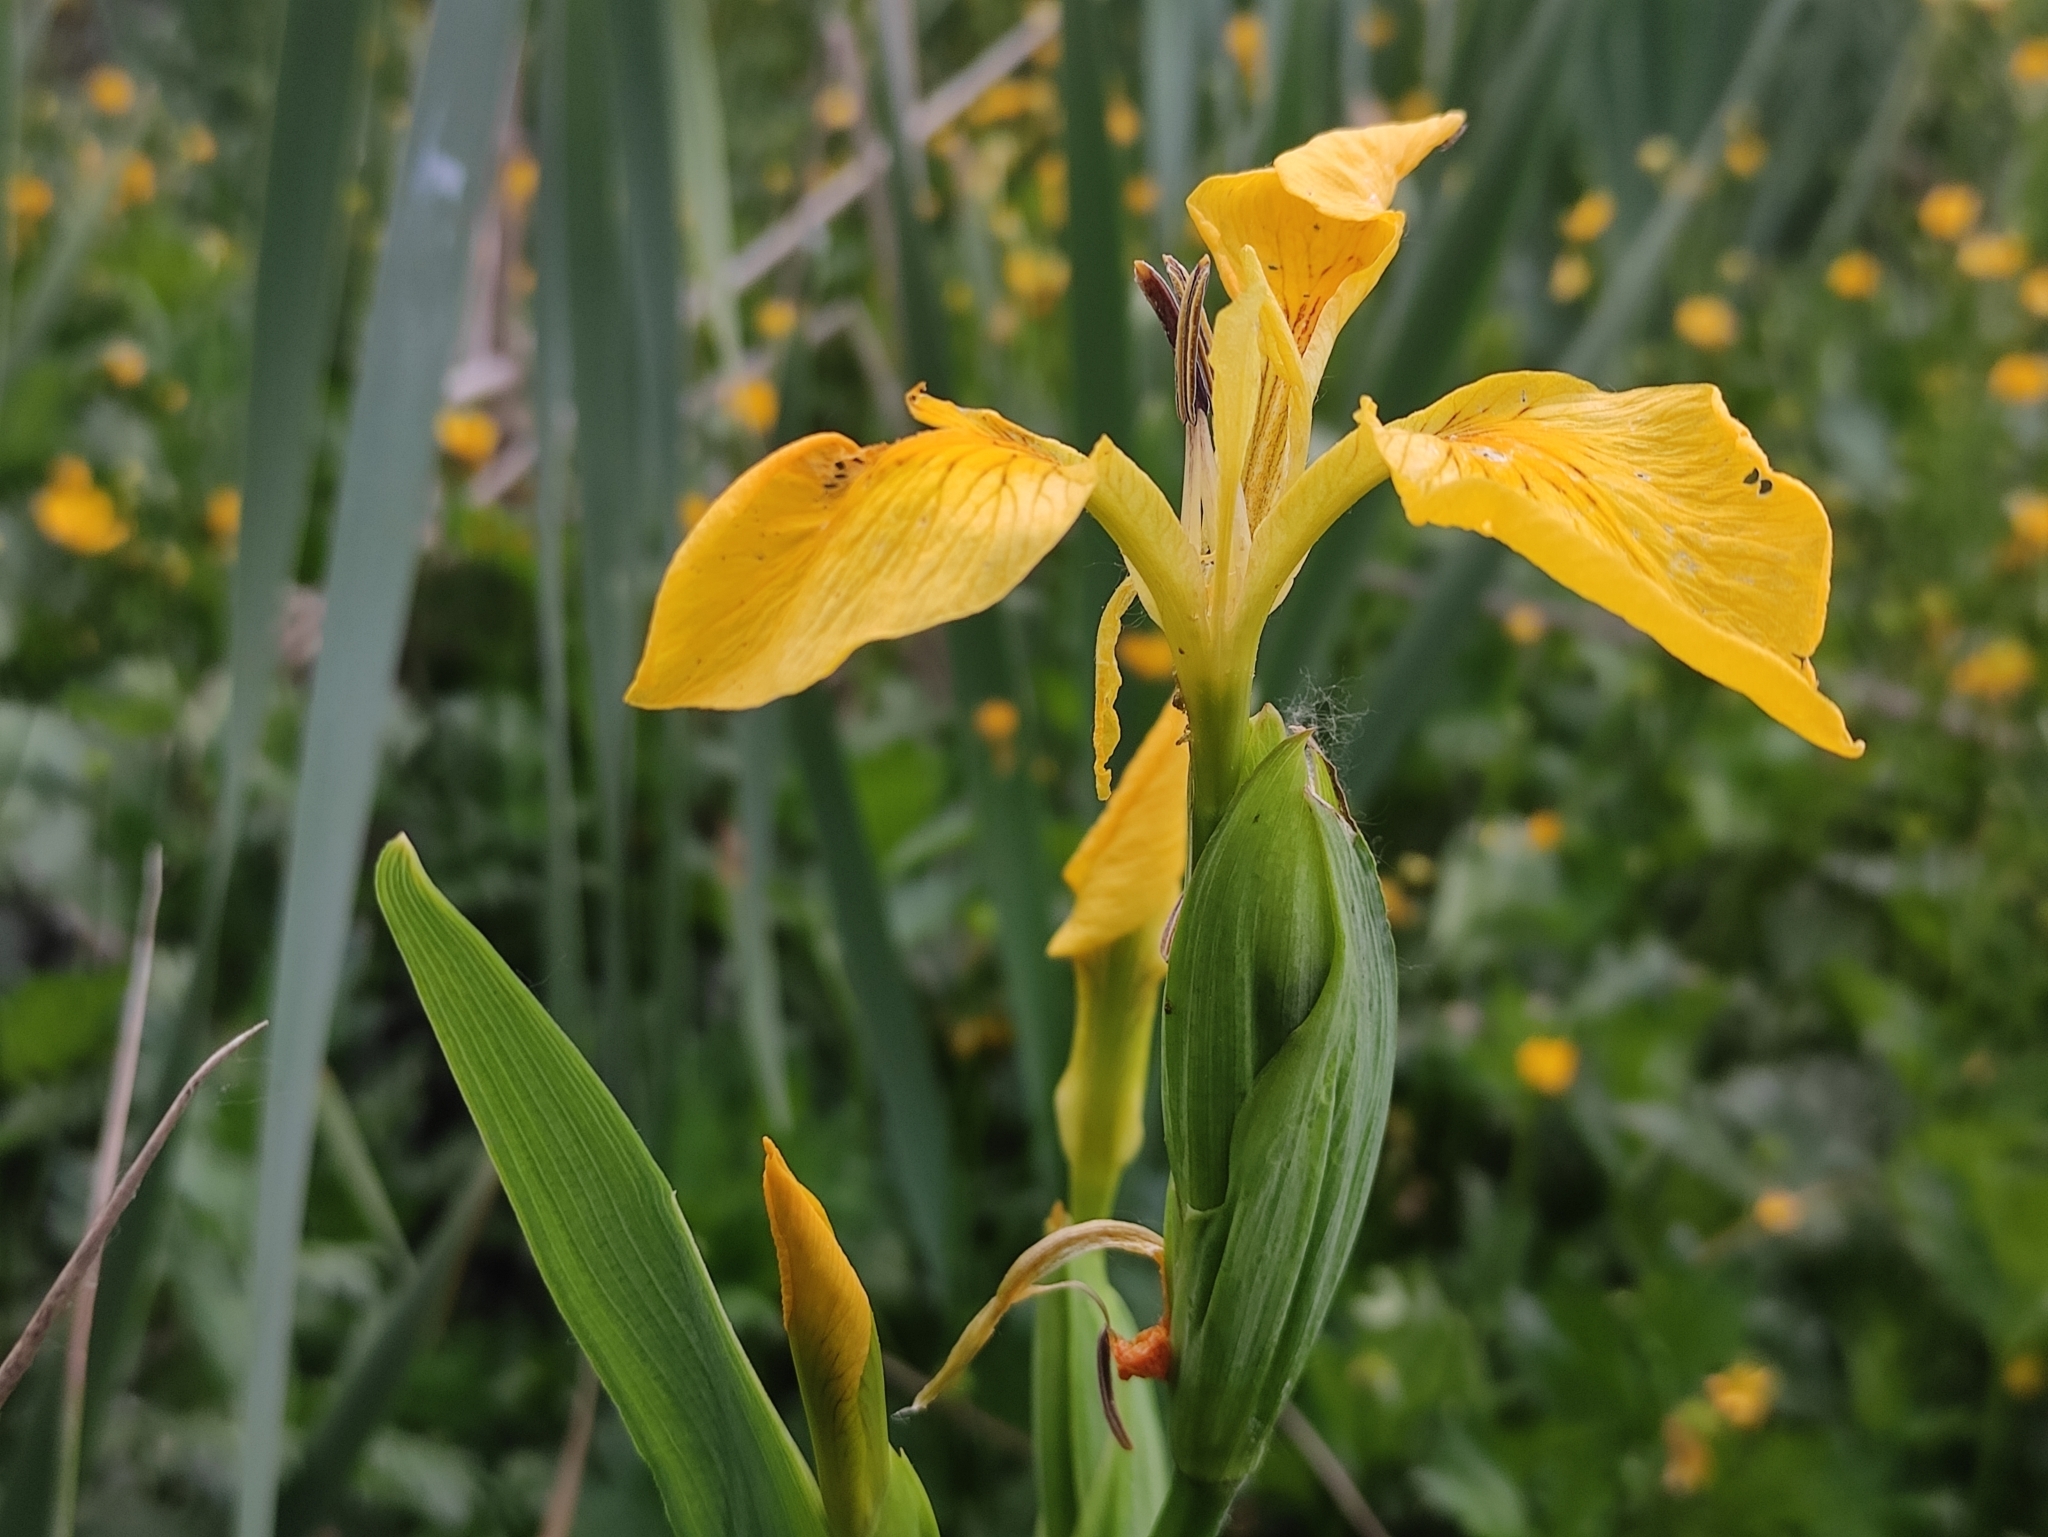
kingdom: Plantae
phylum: Tracheophyta
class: Liliopsida
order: Asparagales
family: Iridaceae
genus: Iris
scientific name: Iris pseudacorus
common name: Yellow flag
